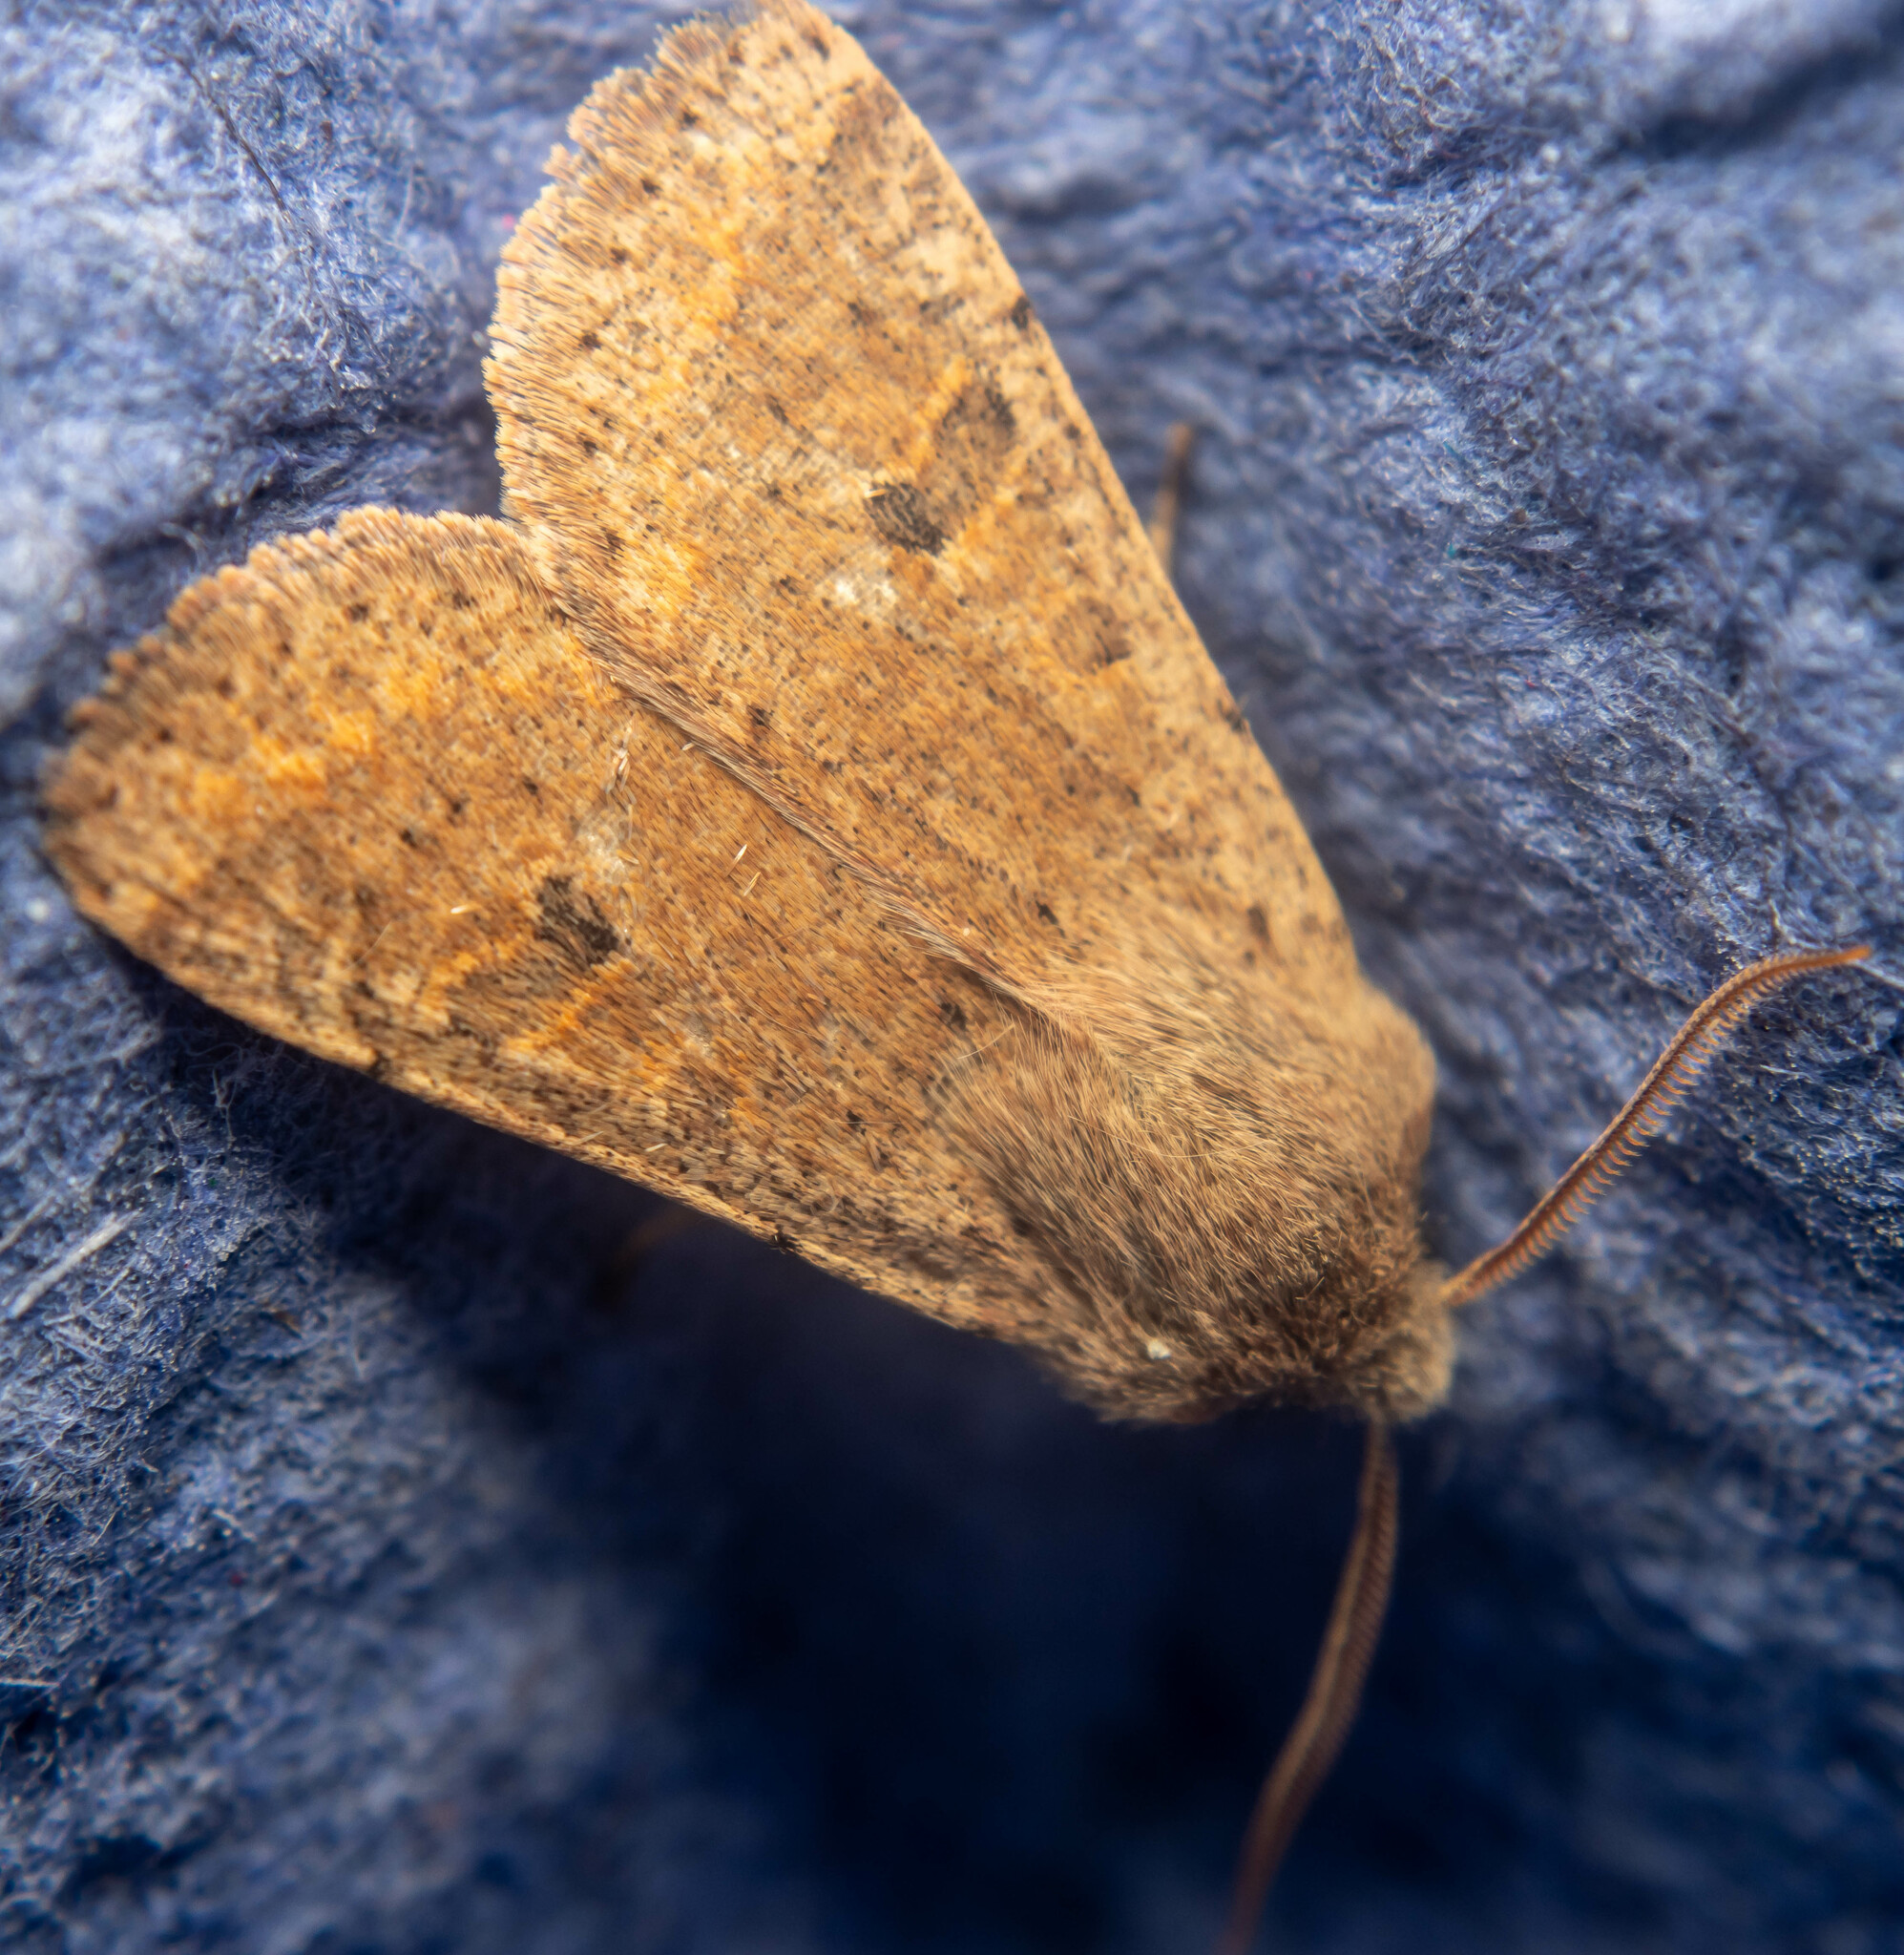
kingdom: Animalia
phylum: Arthropoda
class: Insecta
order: Lepidoptera
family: Noctuidae
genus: Orthosia
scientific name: Orthosia cruda
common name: Small quaker
